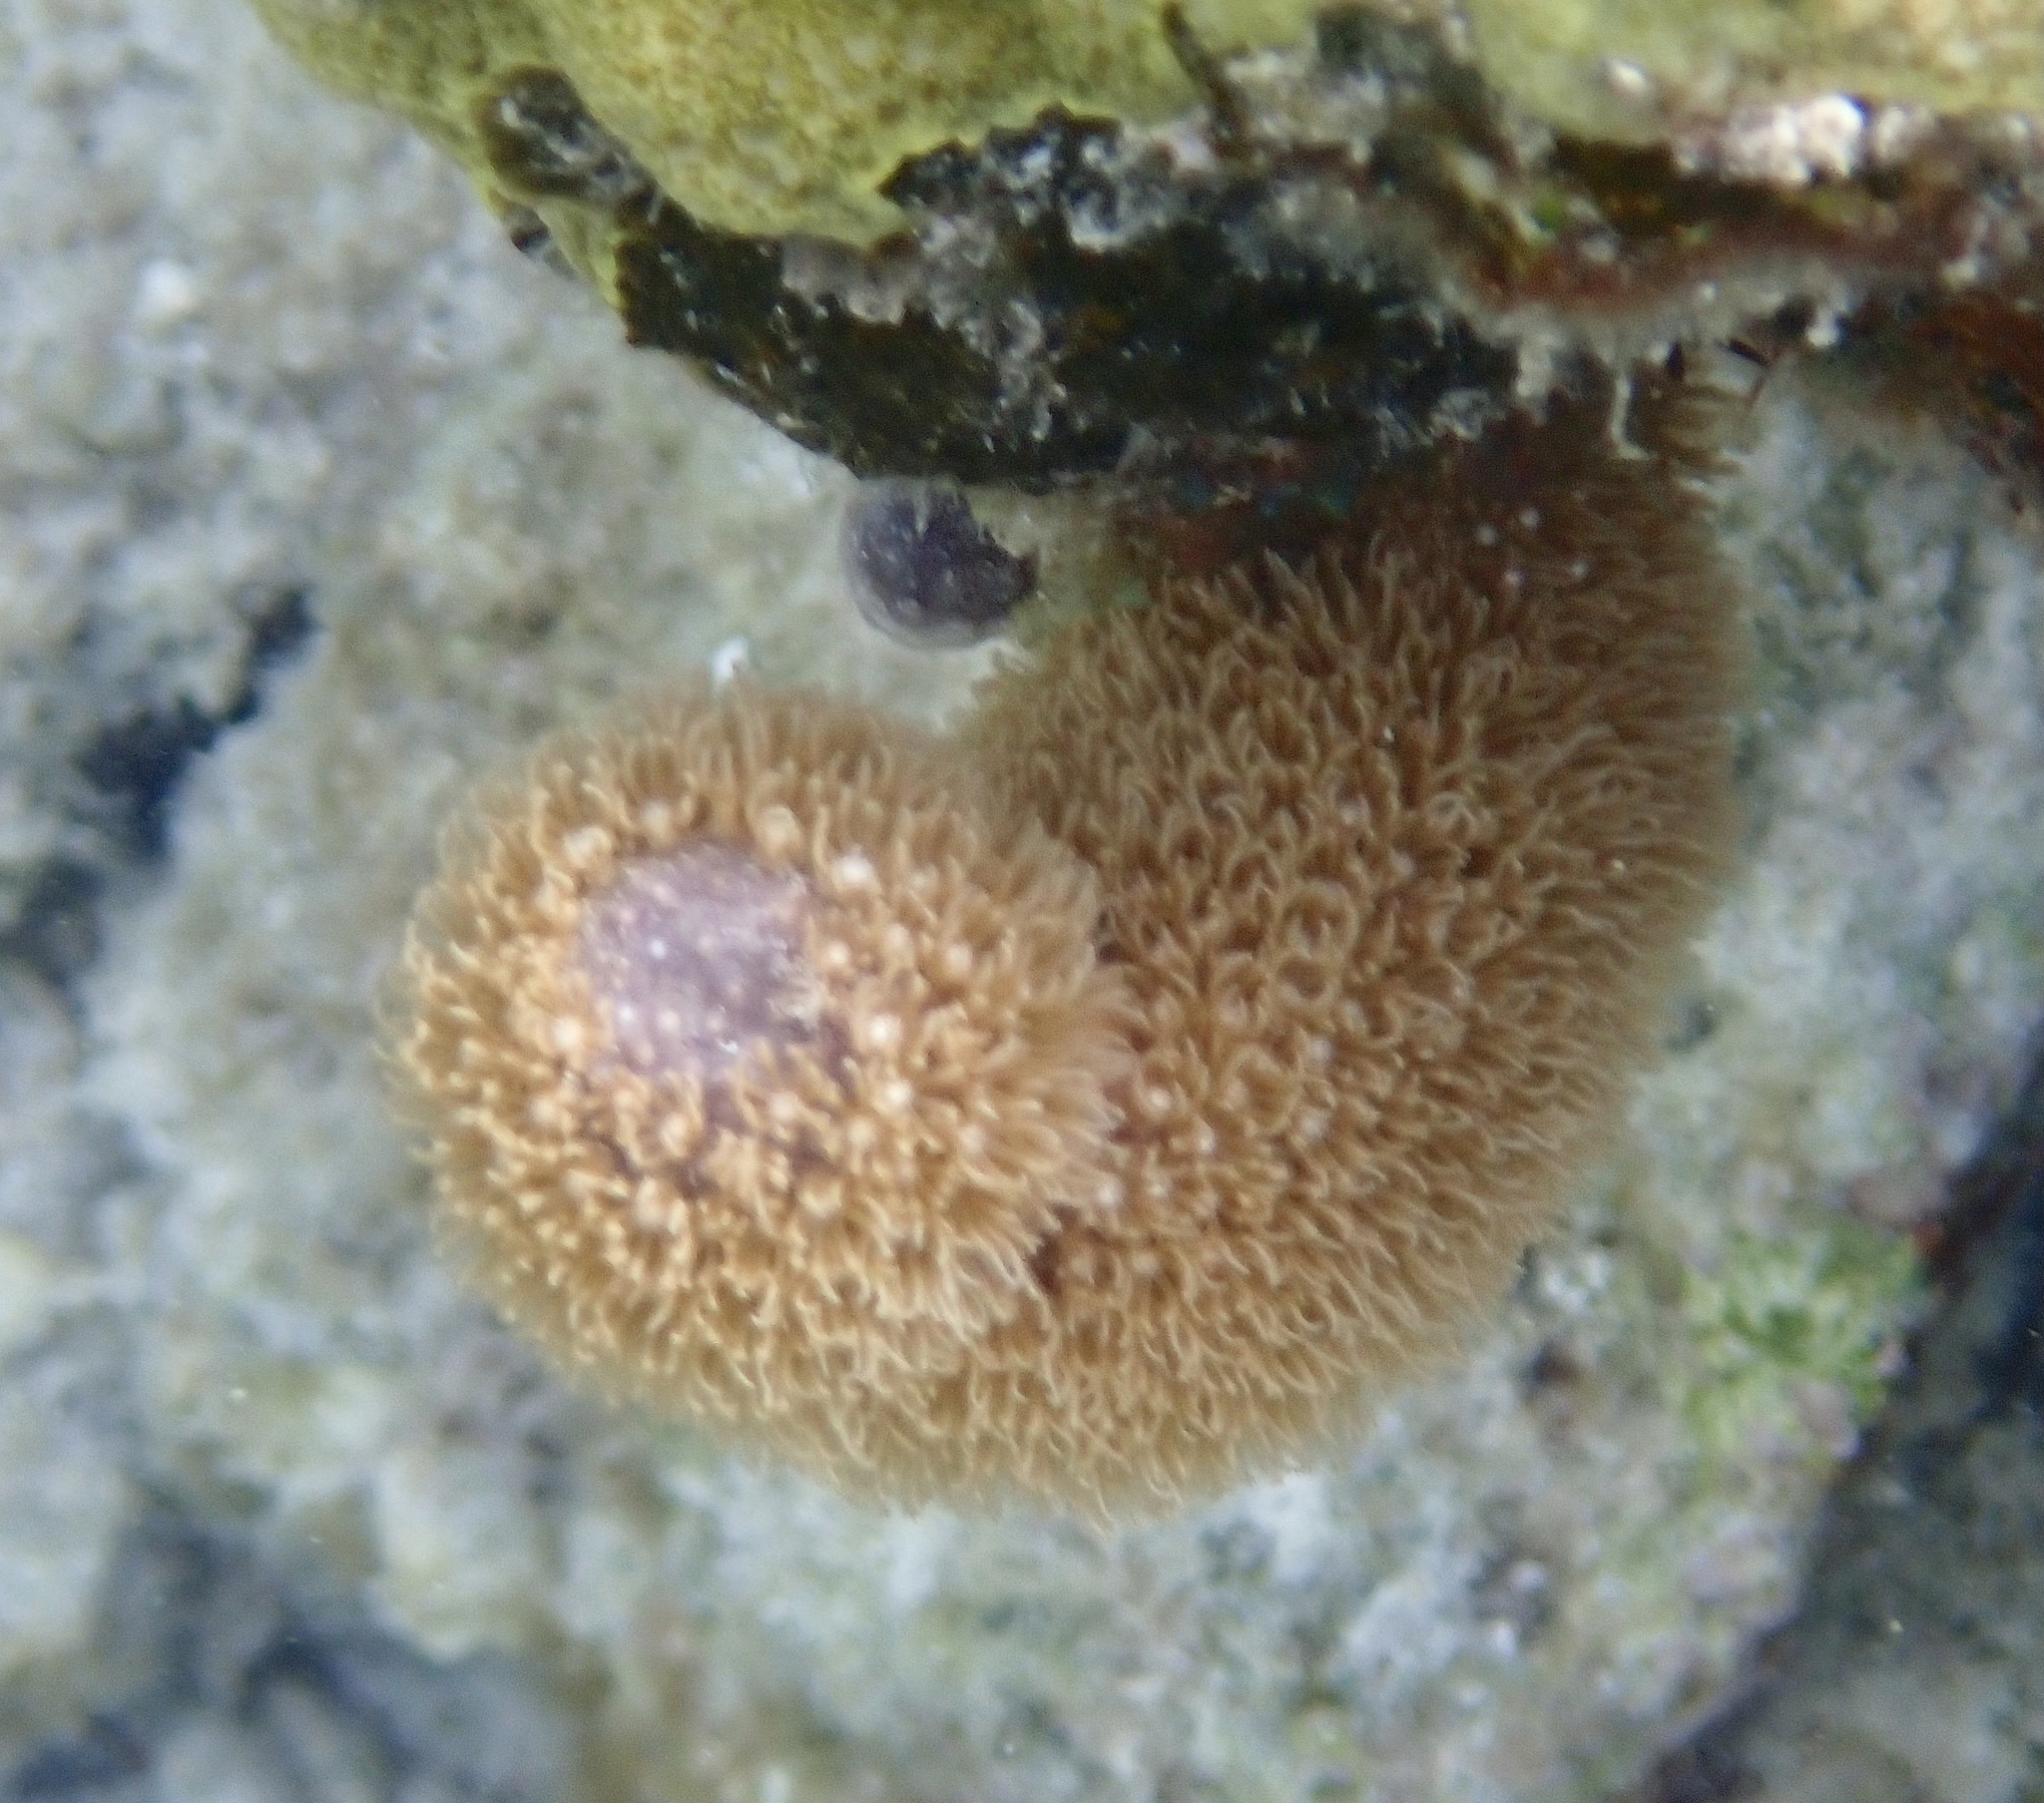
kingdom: Animalia
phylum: Cnidaria
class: Anthozoa
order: Scleralcyonacea
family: Briareidae
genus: Briareum
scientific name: Briareum asbestinum
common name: Corky sea finger
